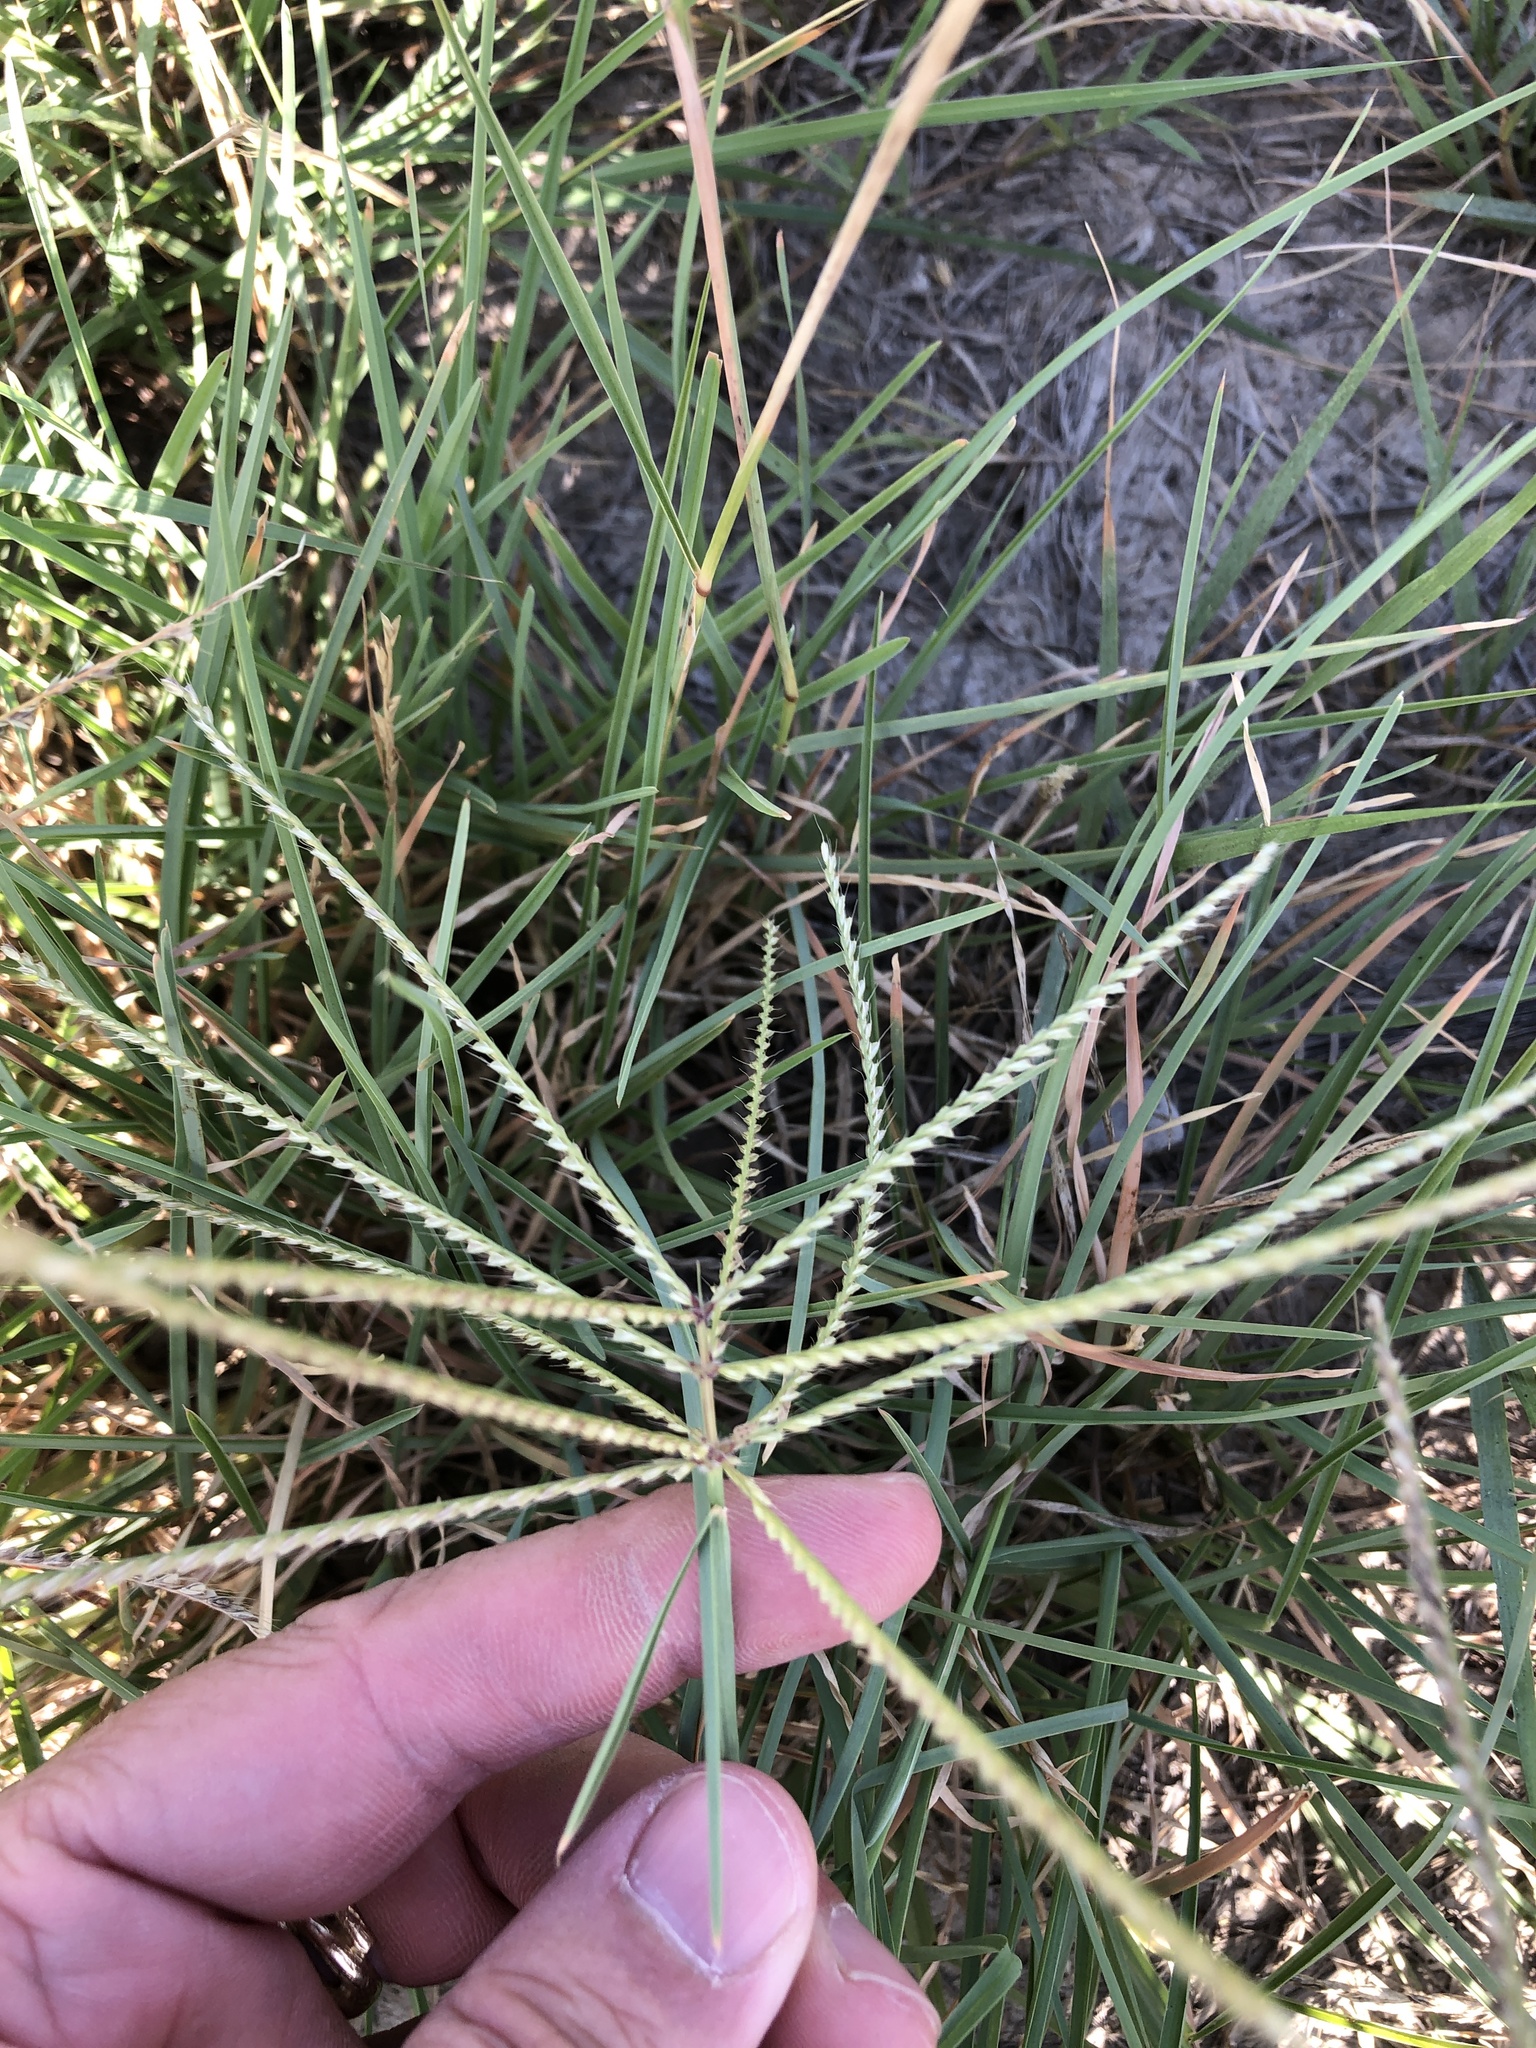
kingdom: Plantae
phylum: Tracheophyta
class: Liliopsida
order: Poales
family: Poaceae
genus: Chloris
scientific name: Chloris verticillata
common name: Tumble windmill grass
